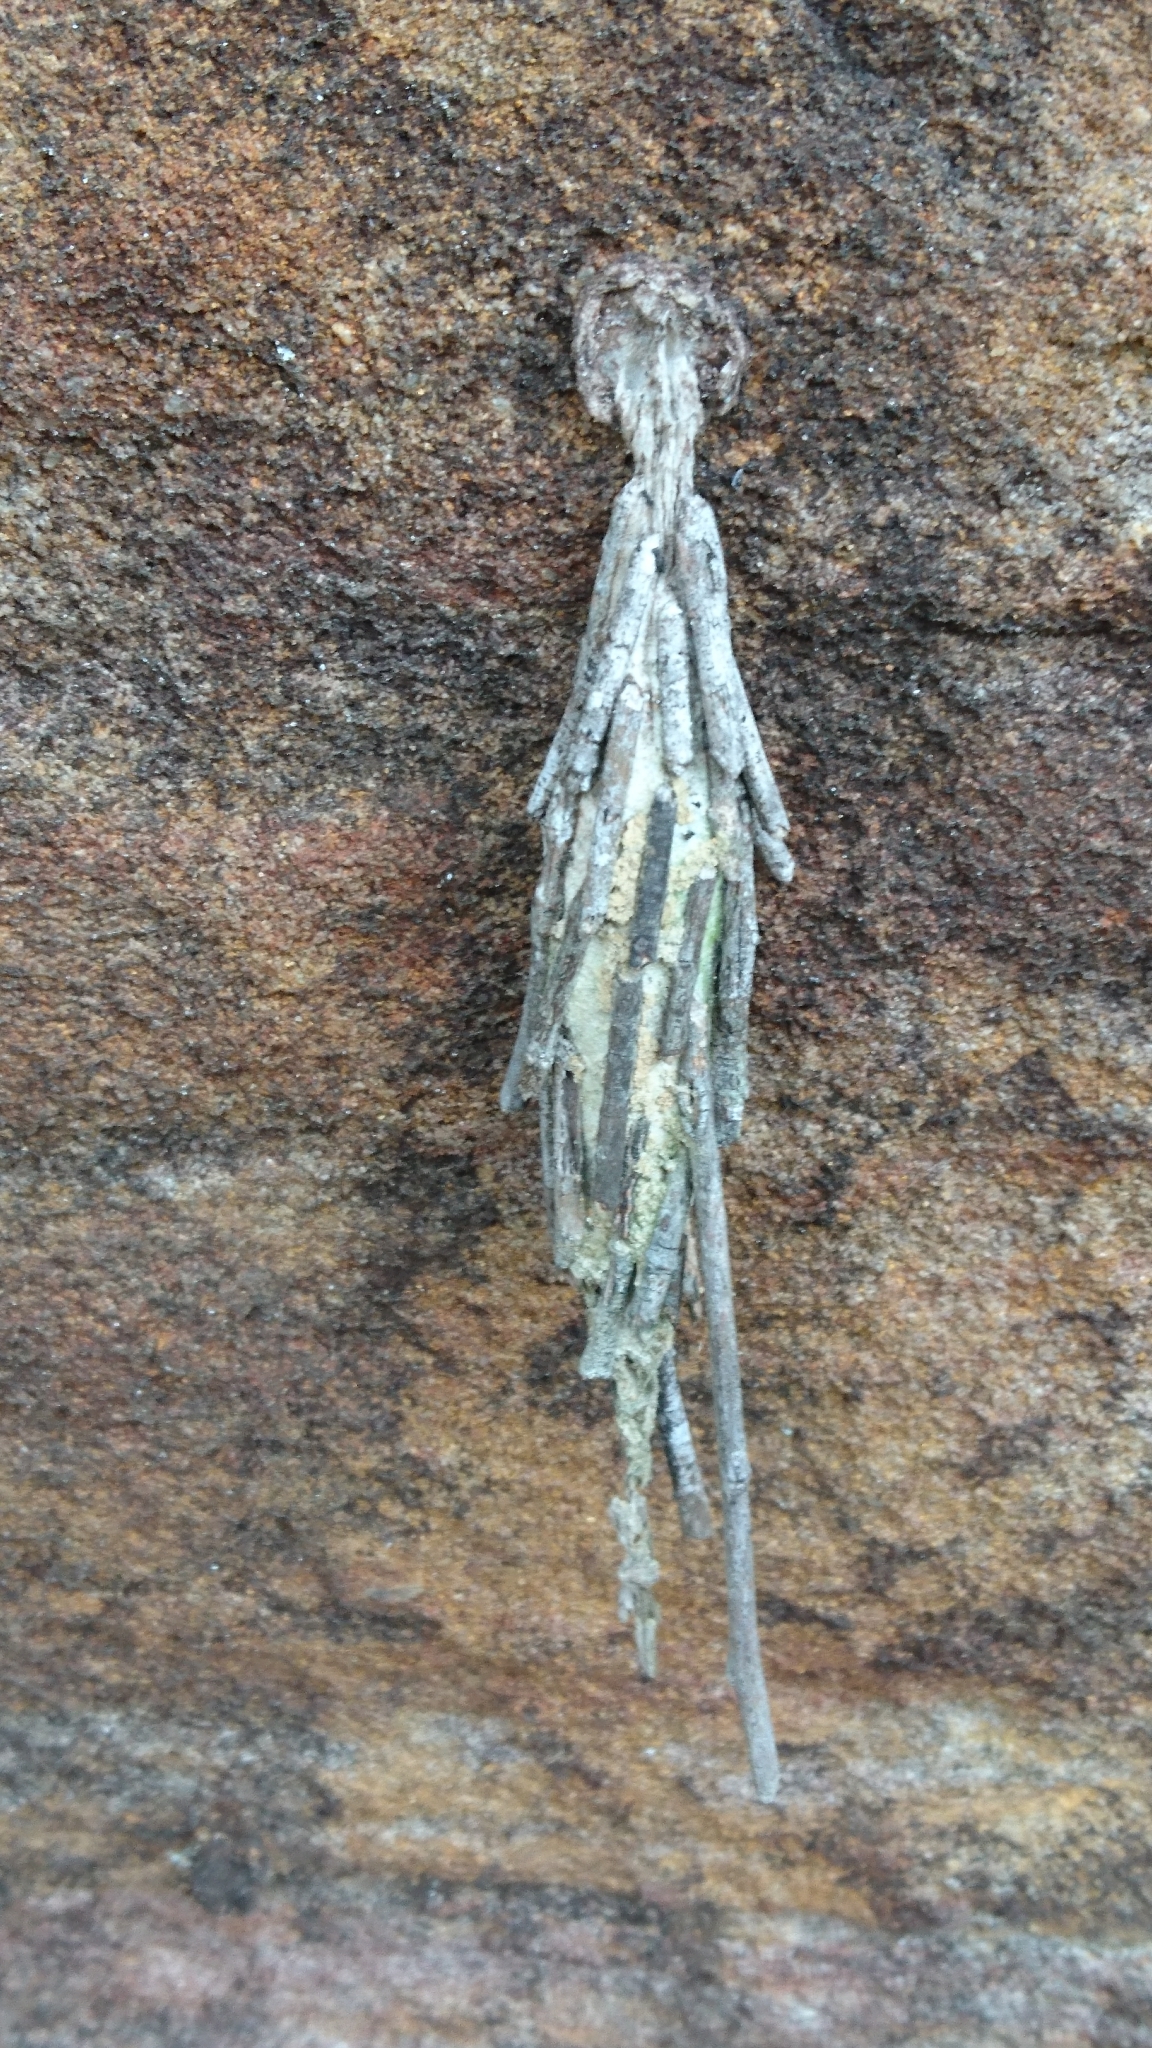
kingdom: Animalia
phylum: Arthropoda
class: Insecta
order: Lepidoptera
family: Psychidae
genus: Metura
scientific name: Metura elongatus
